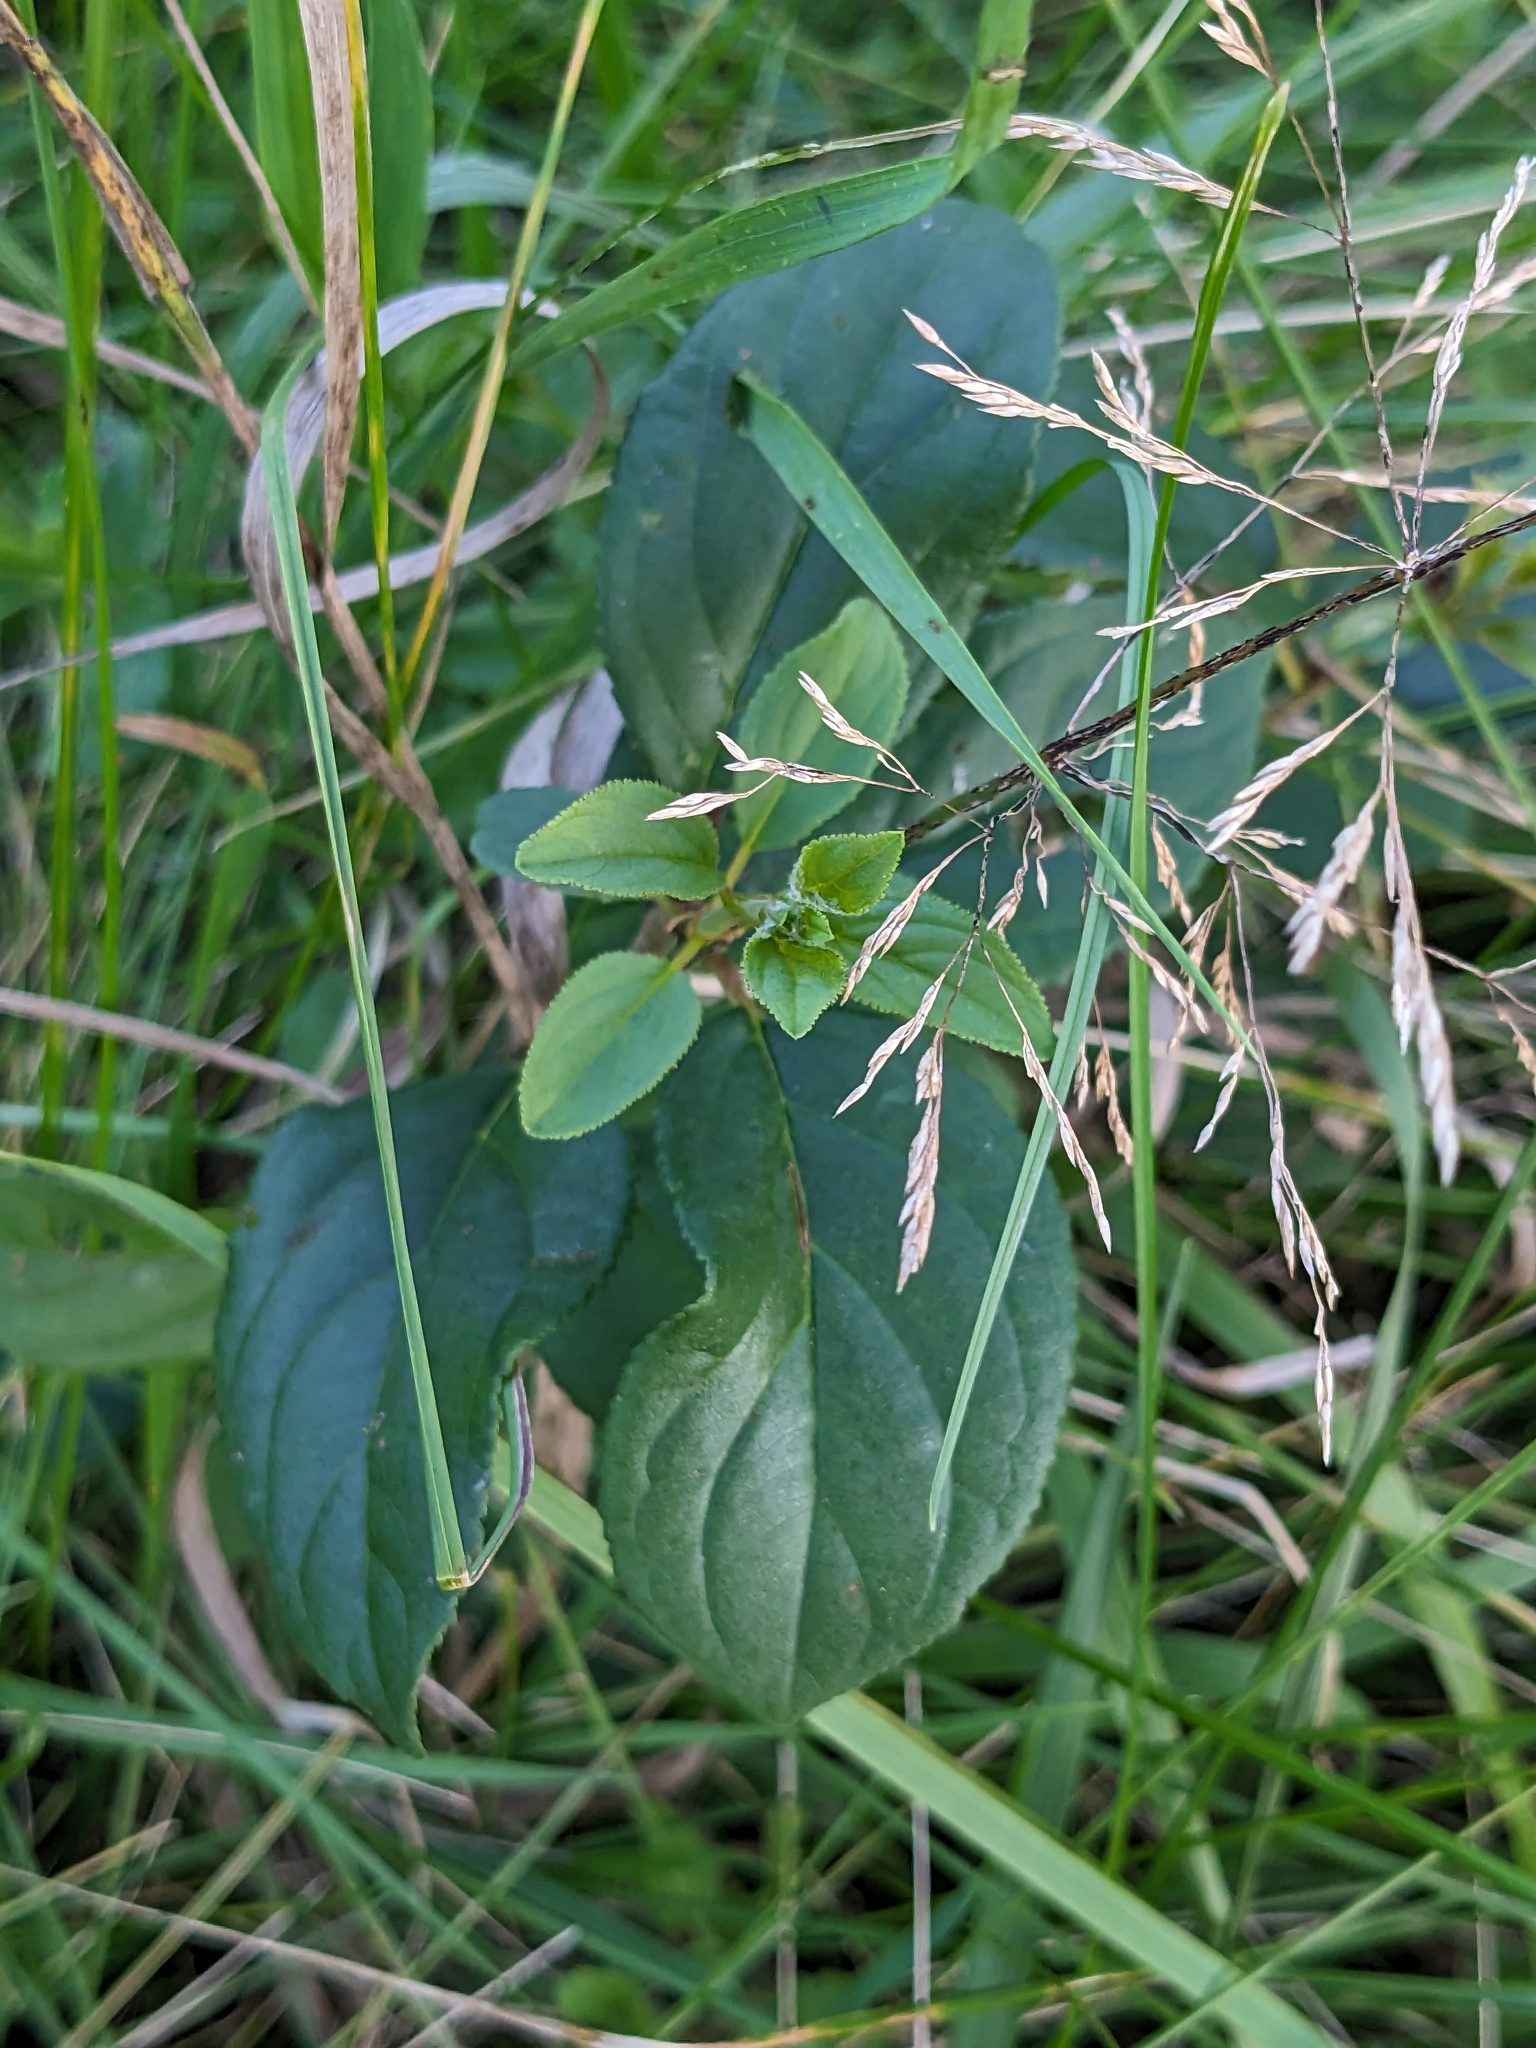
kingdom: Plantae
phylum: Tracheophyta
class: Magnoliopsida
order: Rosales
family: Rhamnaceae
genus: Rhamnus
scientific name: Rhamnus cathartica
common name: Common buckthorn
